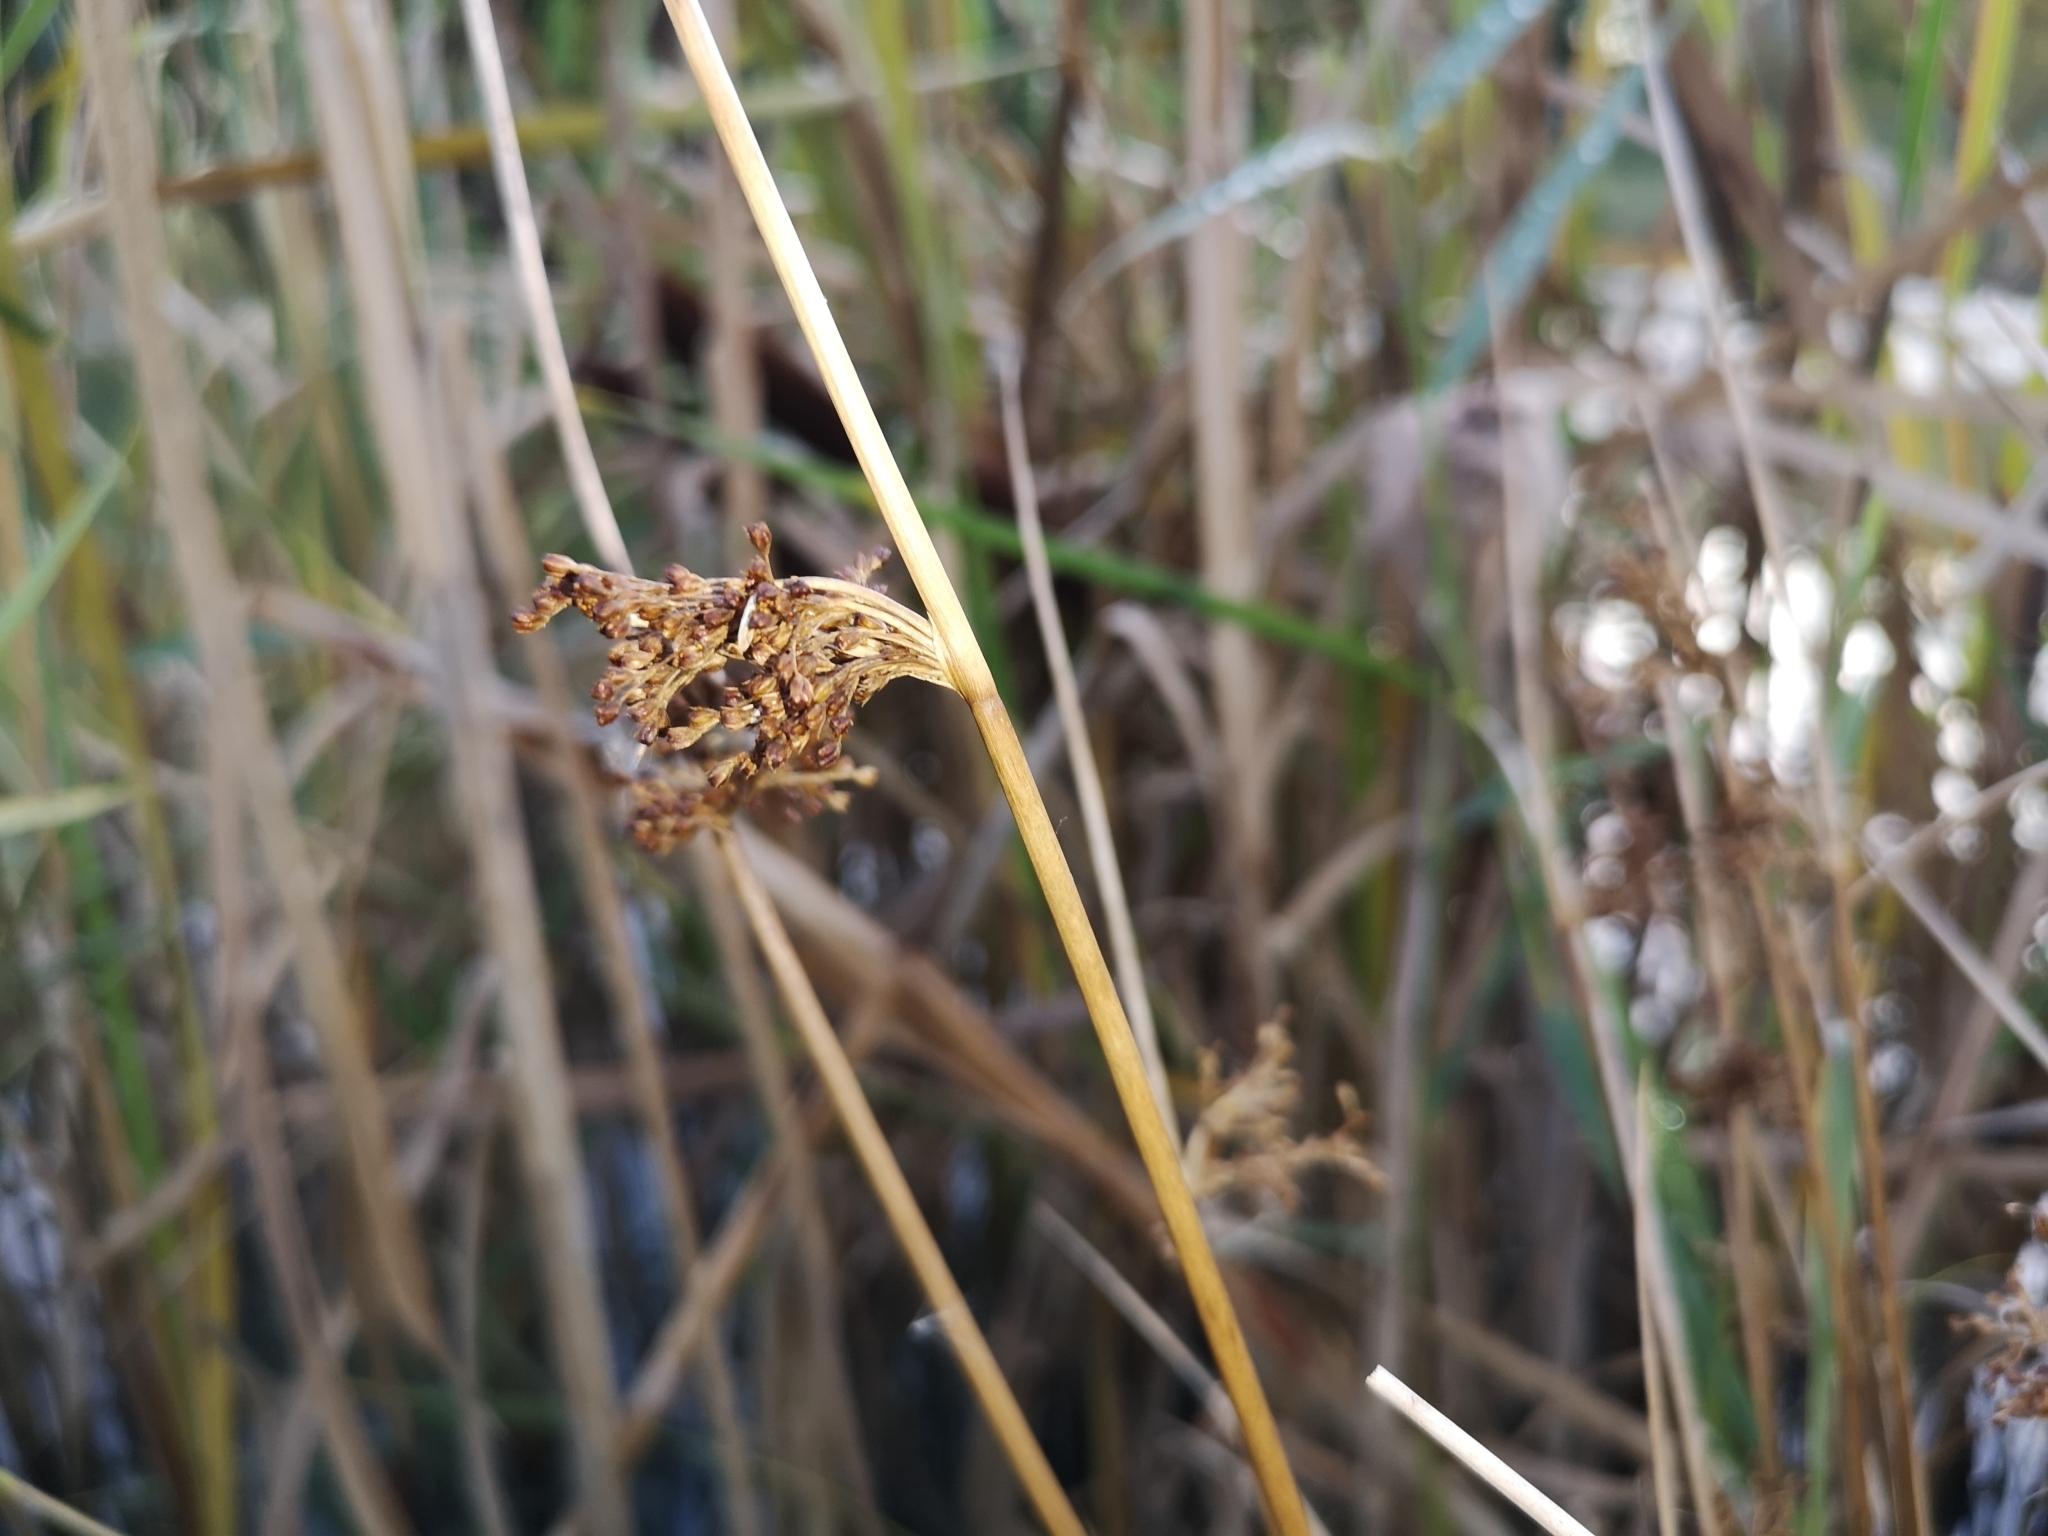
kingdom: Plantae
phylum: Tracheophyta
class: Liliopsida
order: Poales
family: Juncaceae
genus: Juncus
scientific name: Juncus effusus
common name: Soft rush
